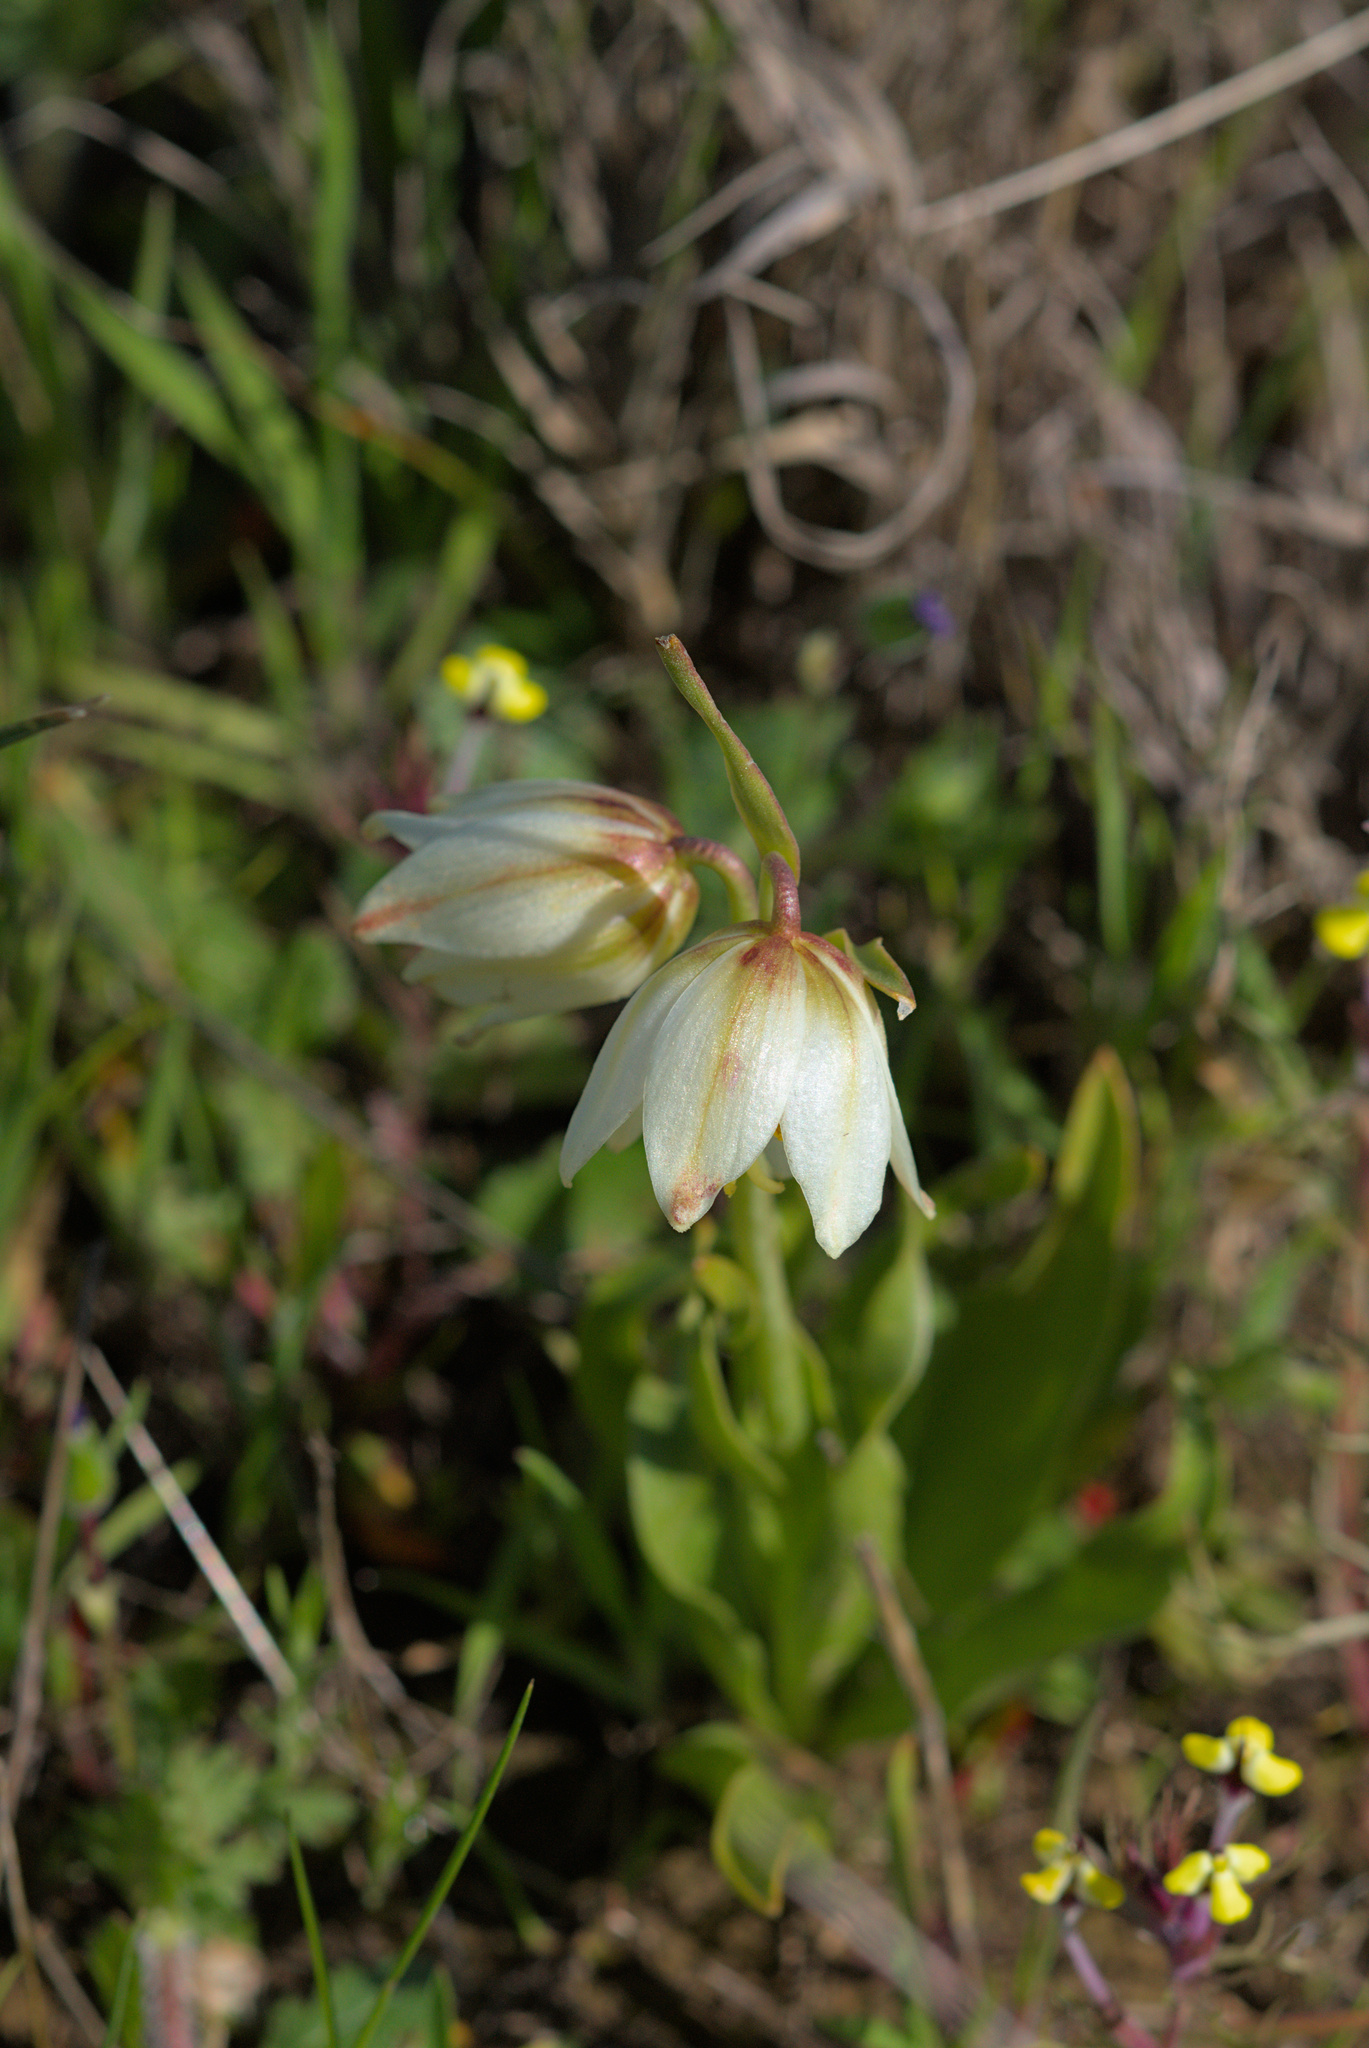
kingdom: Plantae
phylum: Tracheophyta
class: Liliopsida
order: Liliales
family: Liliaceae
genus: Fritillaria
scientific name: Fritillaria liliacea
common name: Fragrant fritillary
